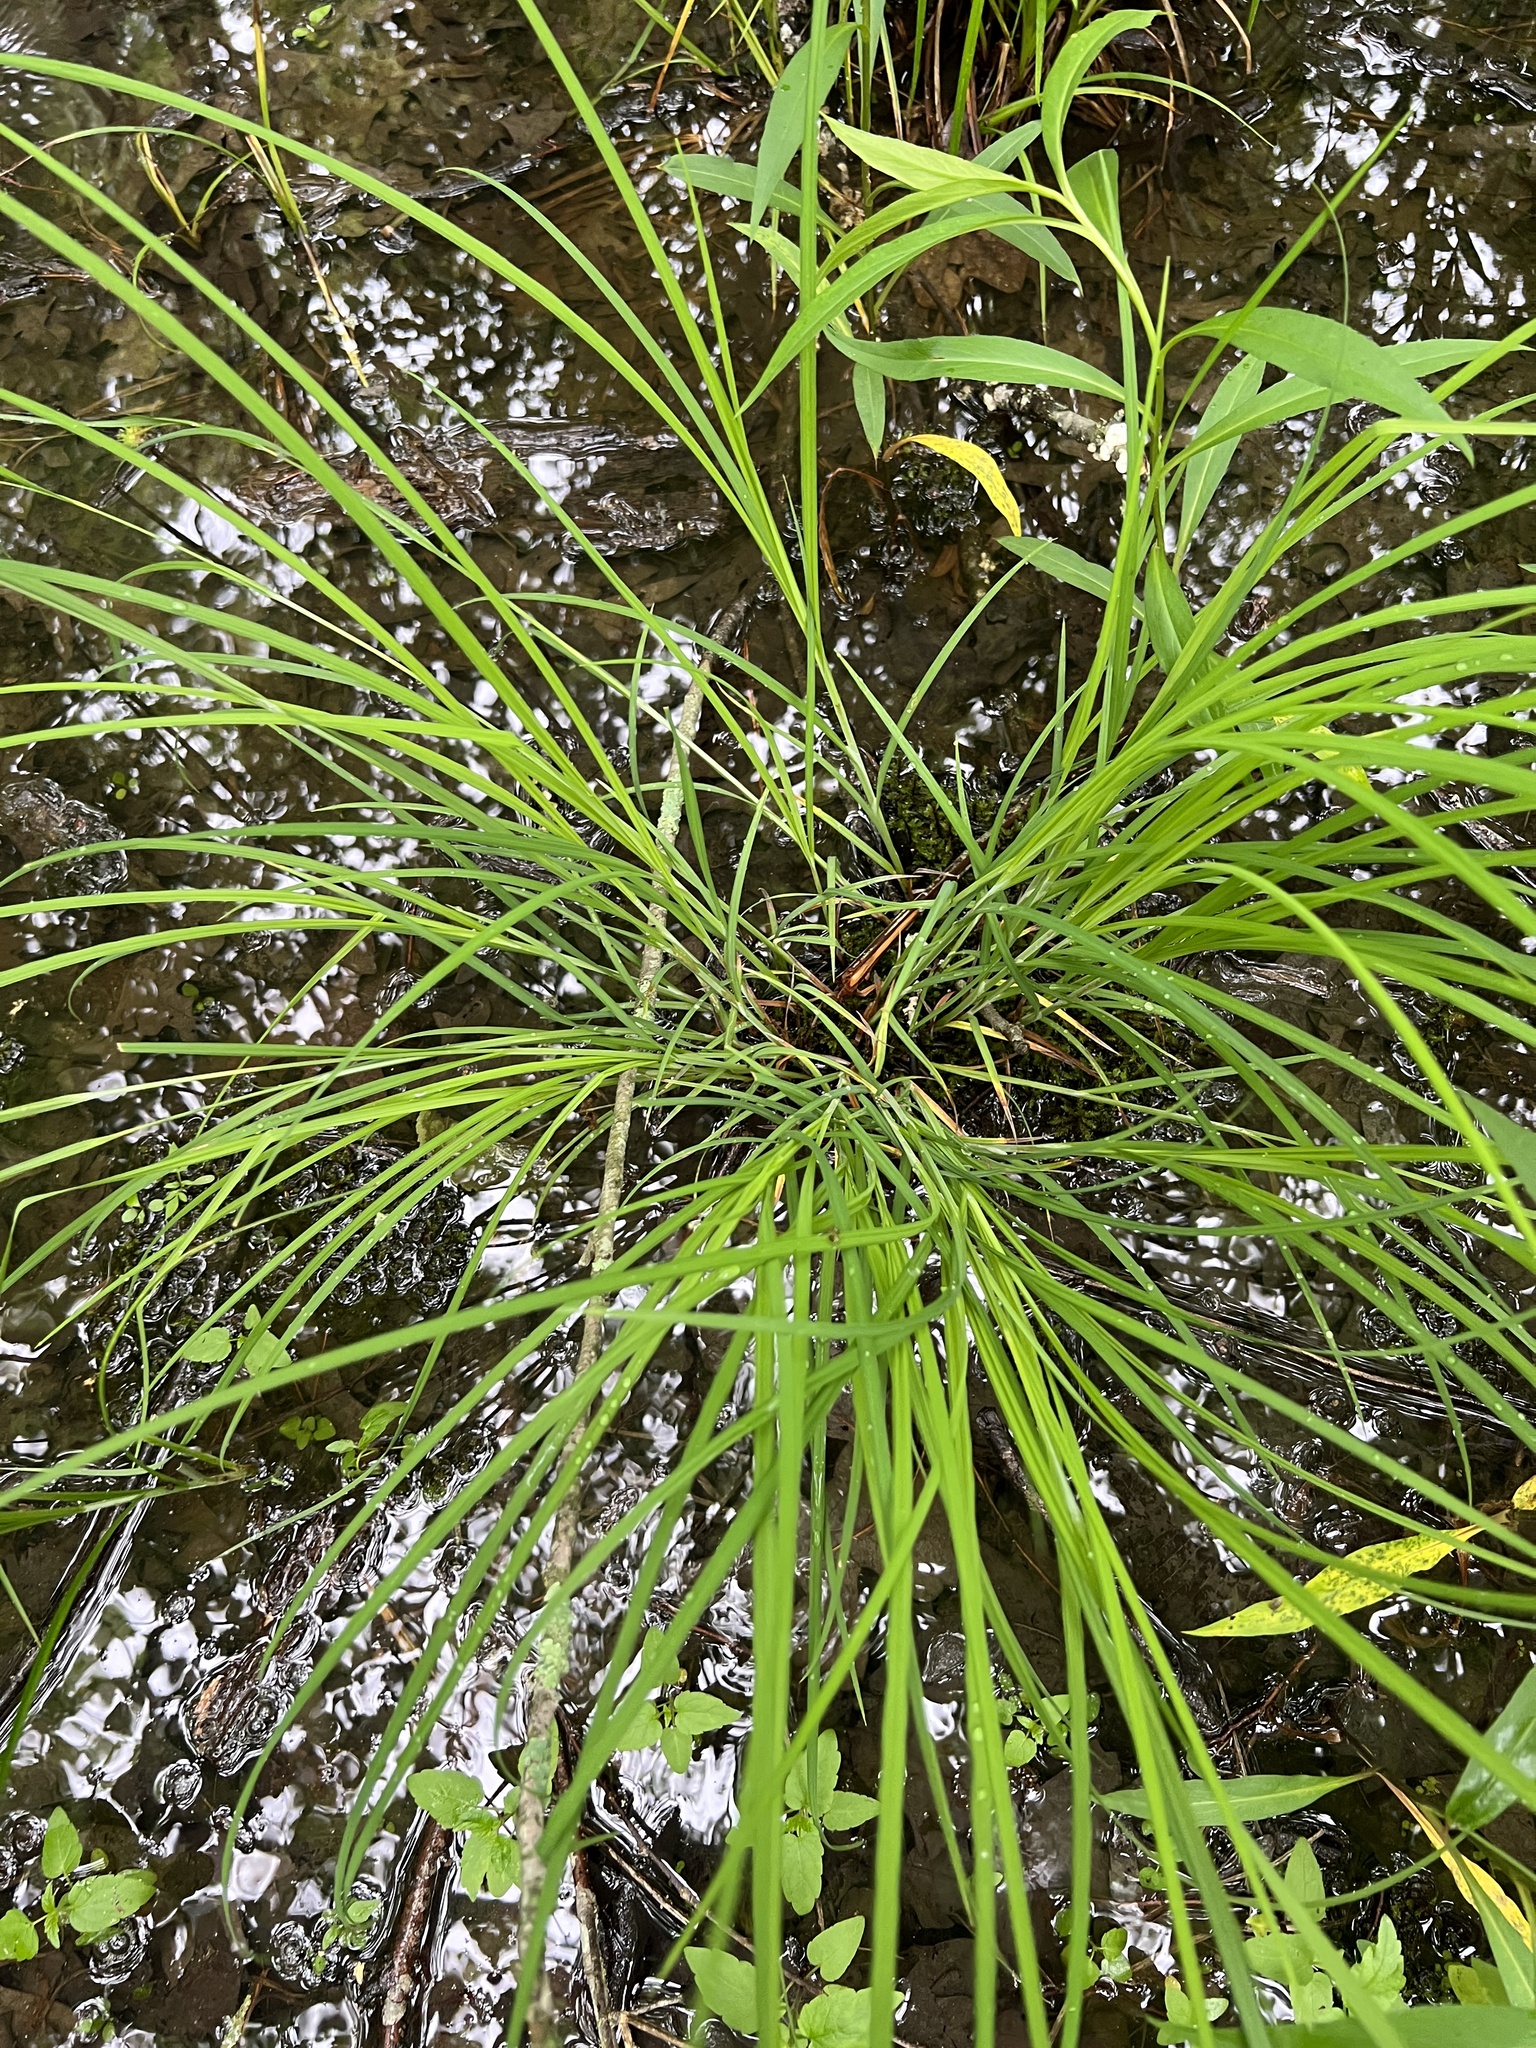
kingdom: Plantae
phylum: Tracheophyta
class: Liliopsida
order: Poales
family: Cyperaceae
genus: Carex
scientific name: Carex squarrosa
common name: Narrow-leaved cattail sedge
